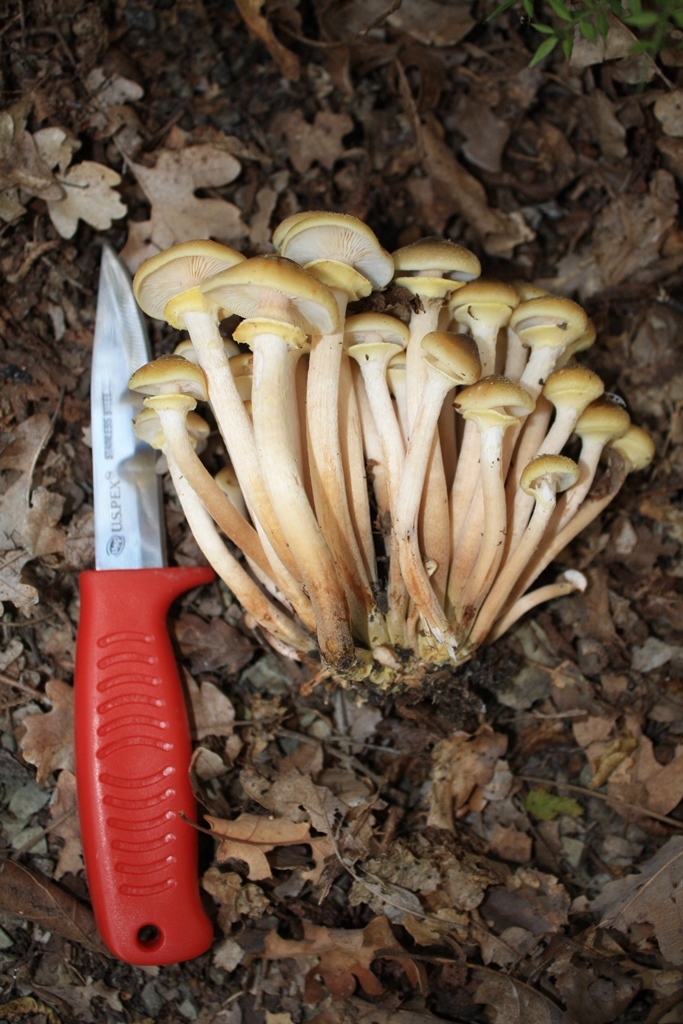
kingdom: Fungi
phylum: Basidiomycota
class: Agaricomycetes
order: Agaricales
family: Physalacriaceae
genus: Armillaria
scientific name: Armillaria mellea
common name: Honey fungus
